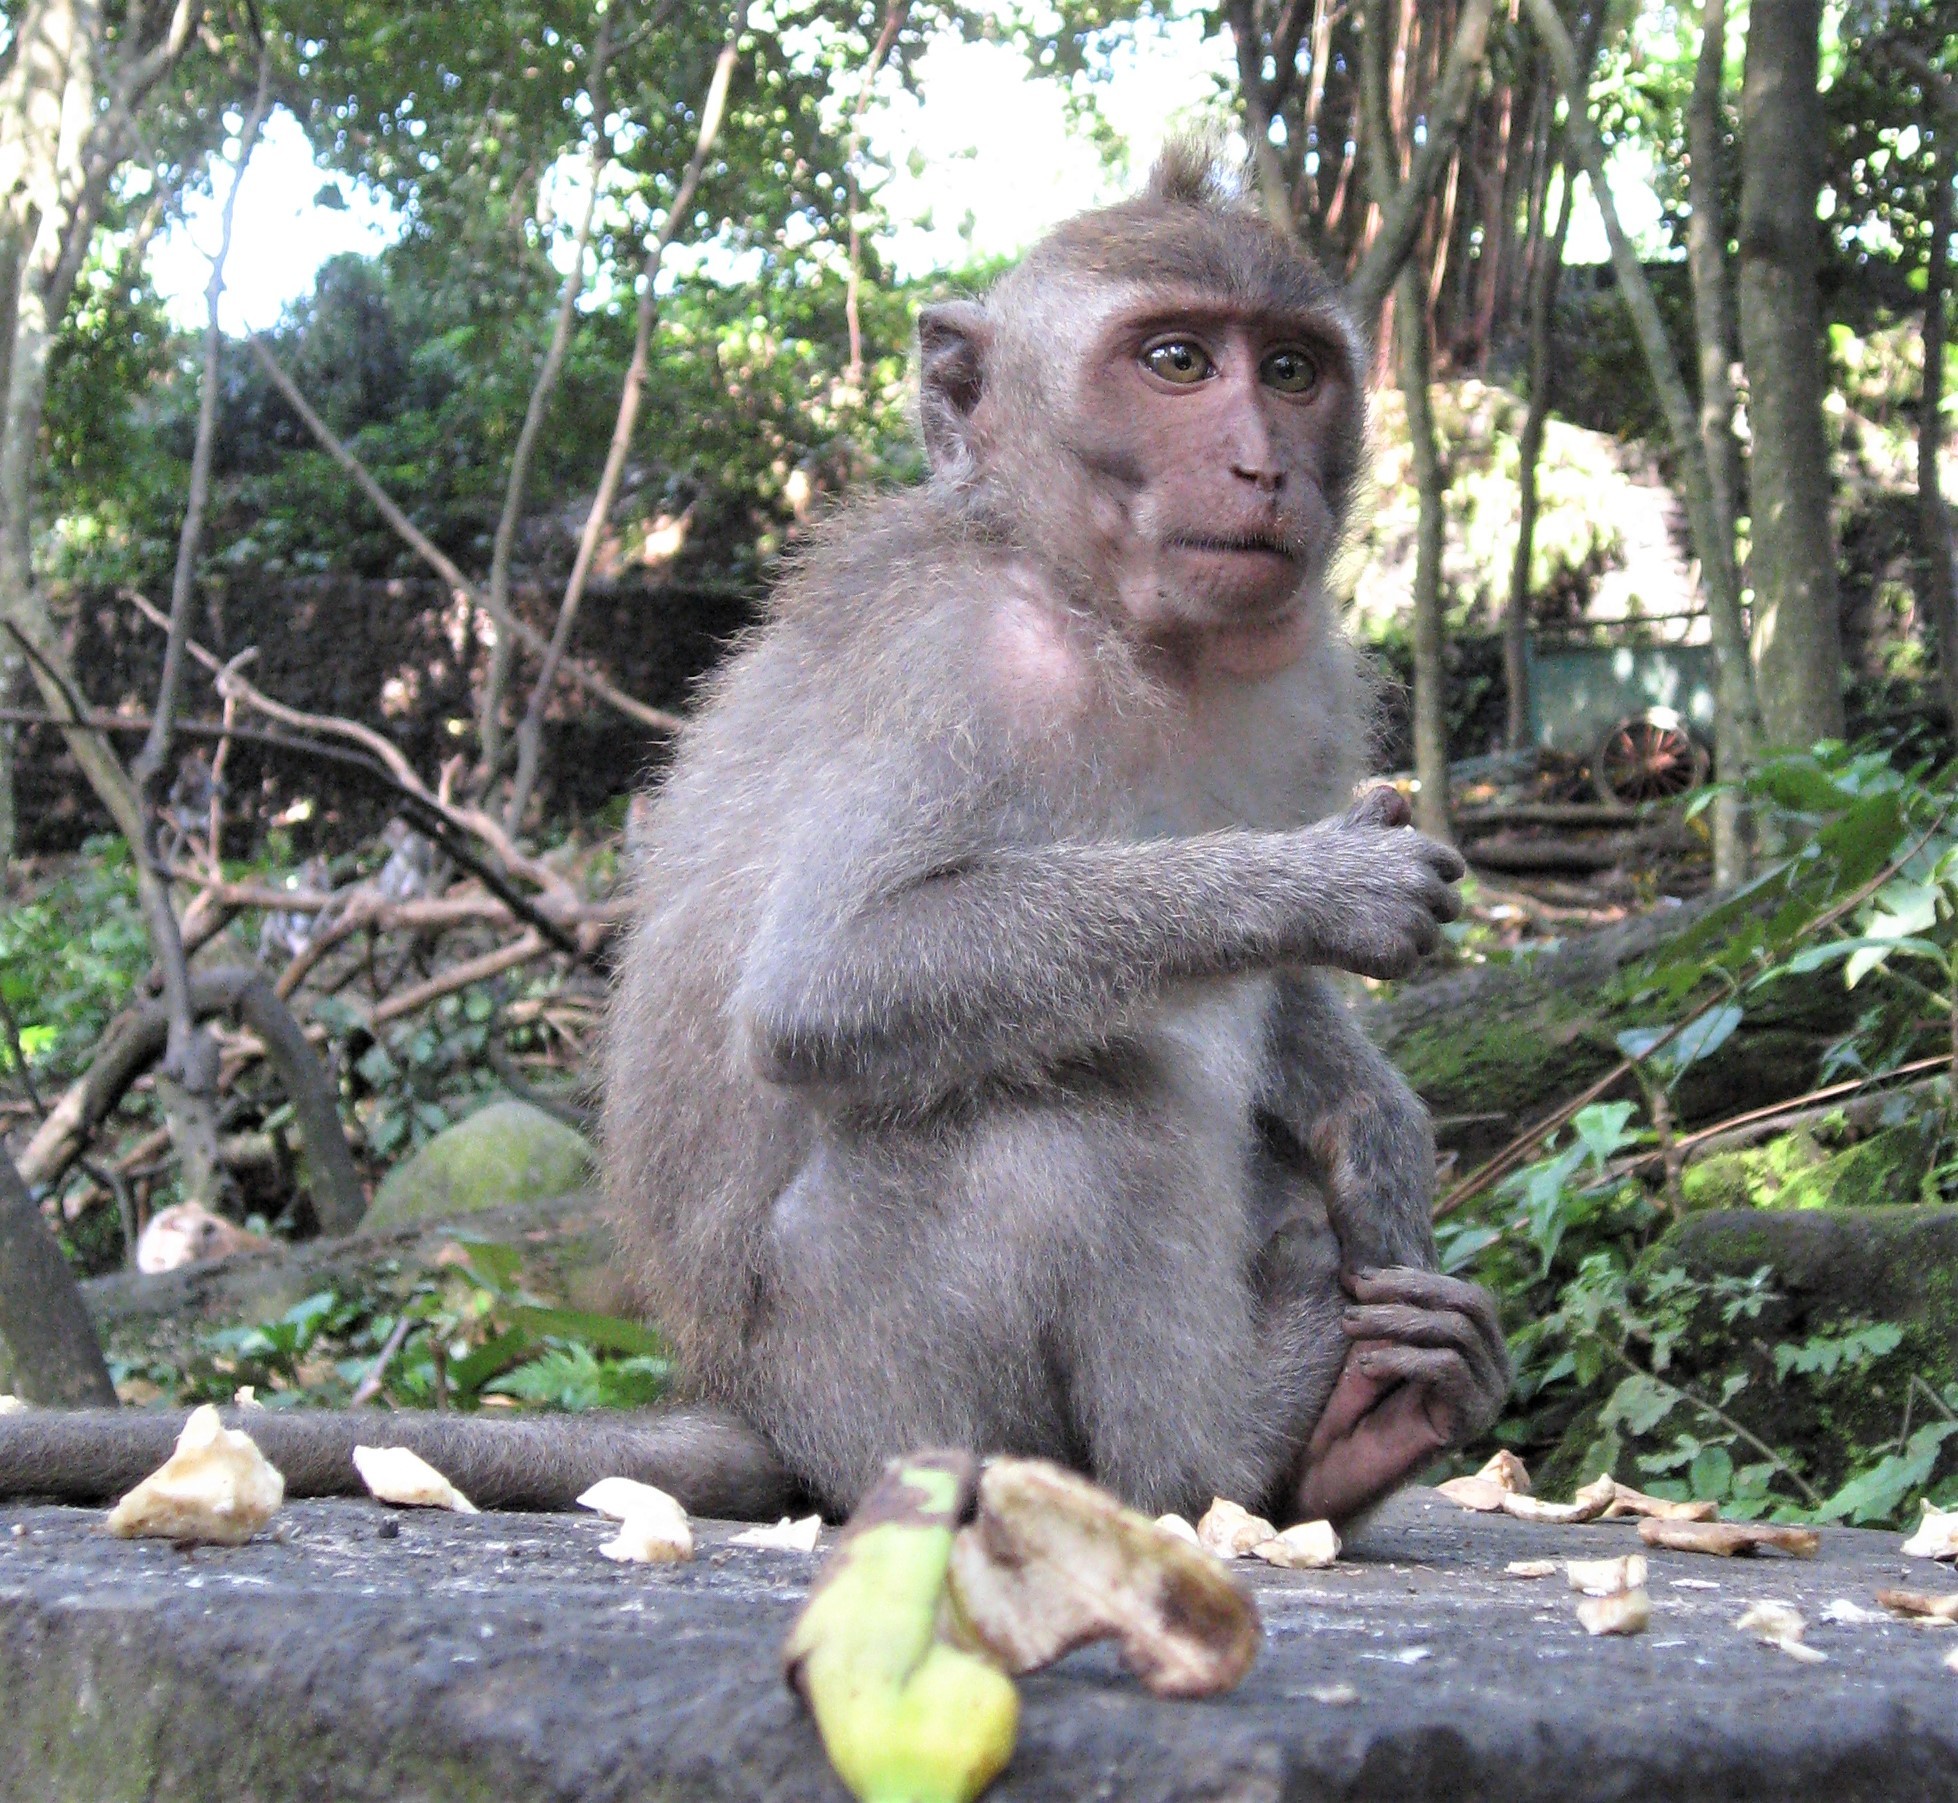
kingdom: Animalia
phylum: Chordata
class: Mammalia
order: Primates
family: Cercopithecidae
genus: Macaca
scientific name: Macaca fascicularis
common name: Crab-eating macaque
